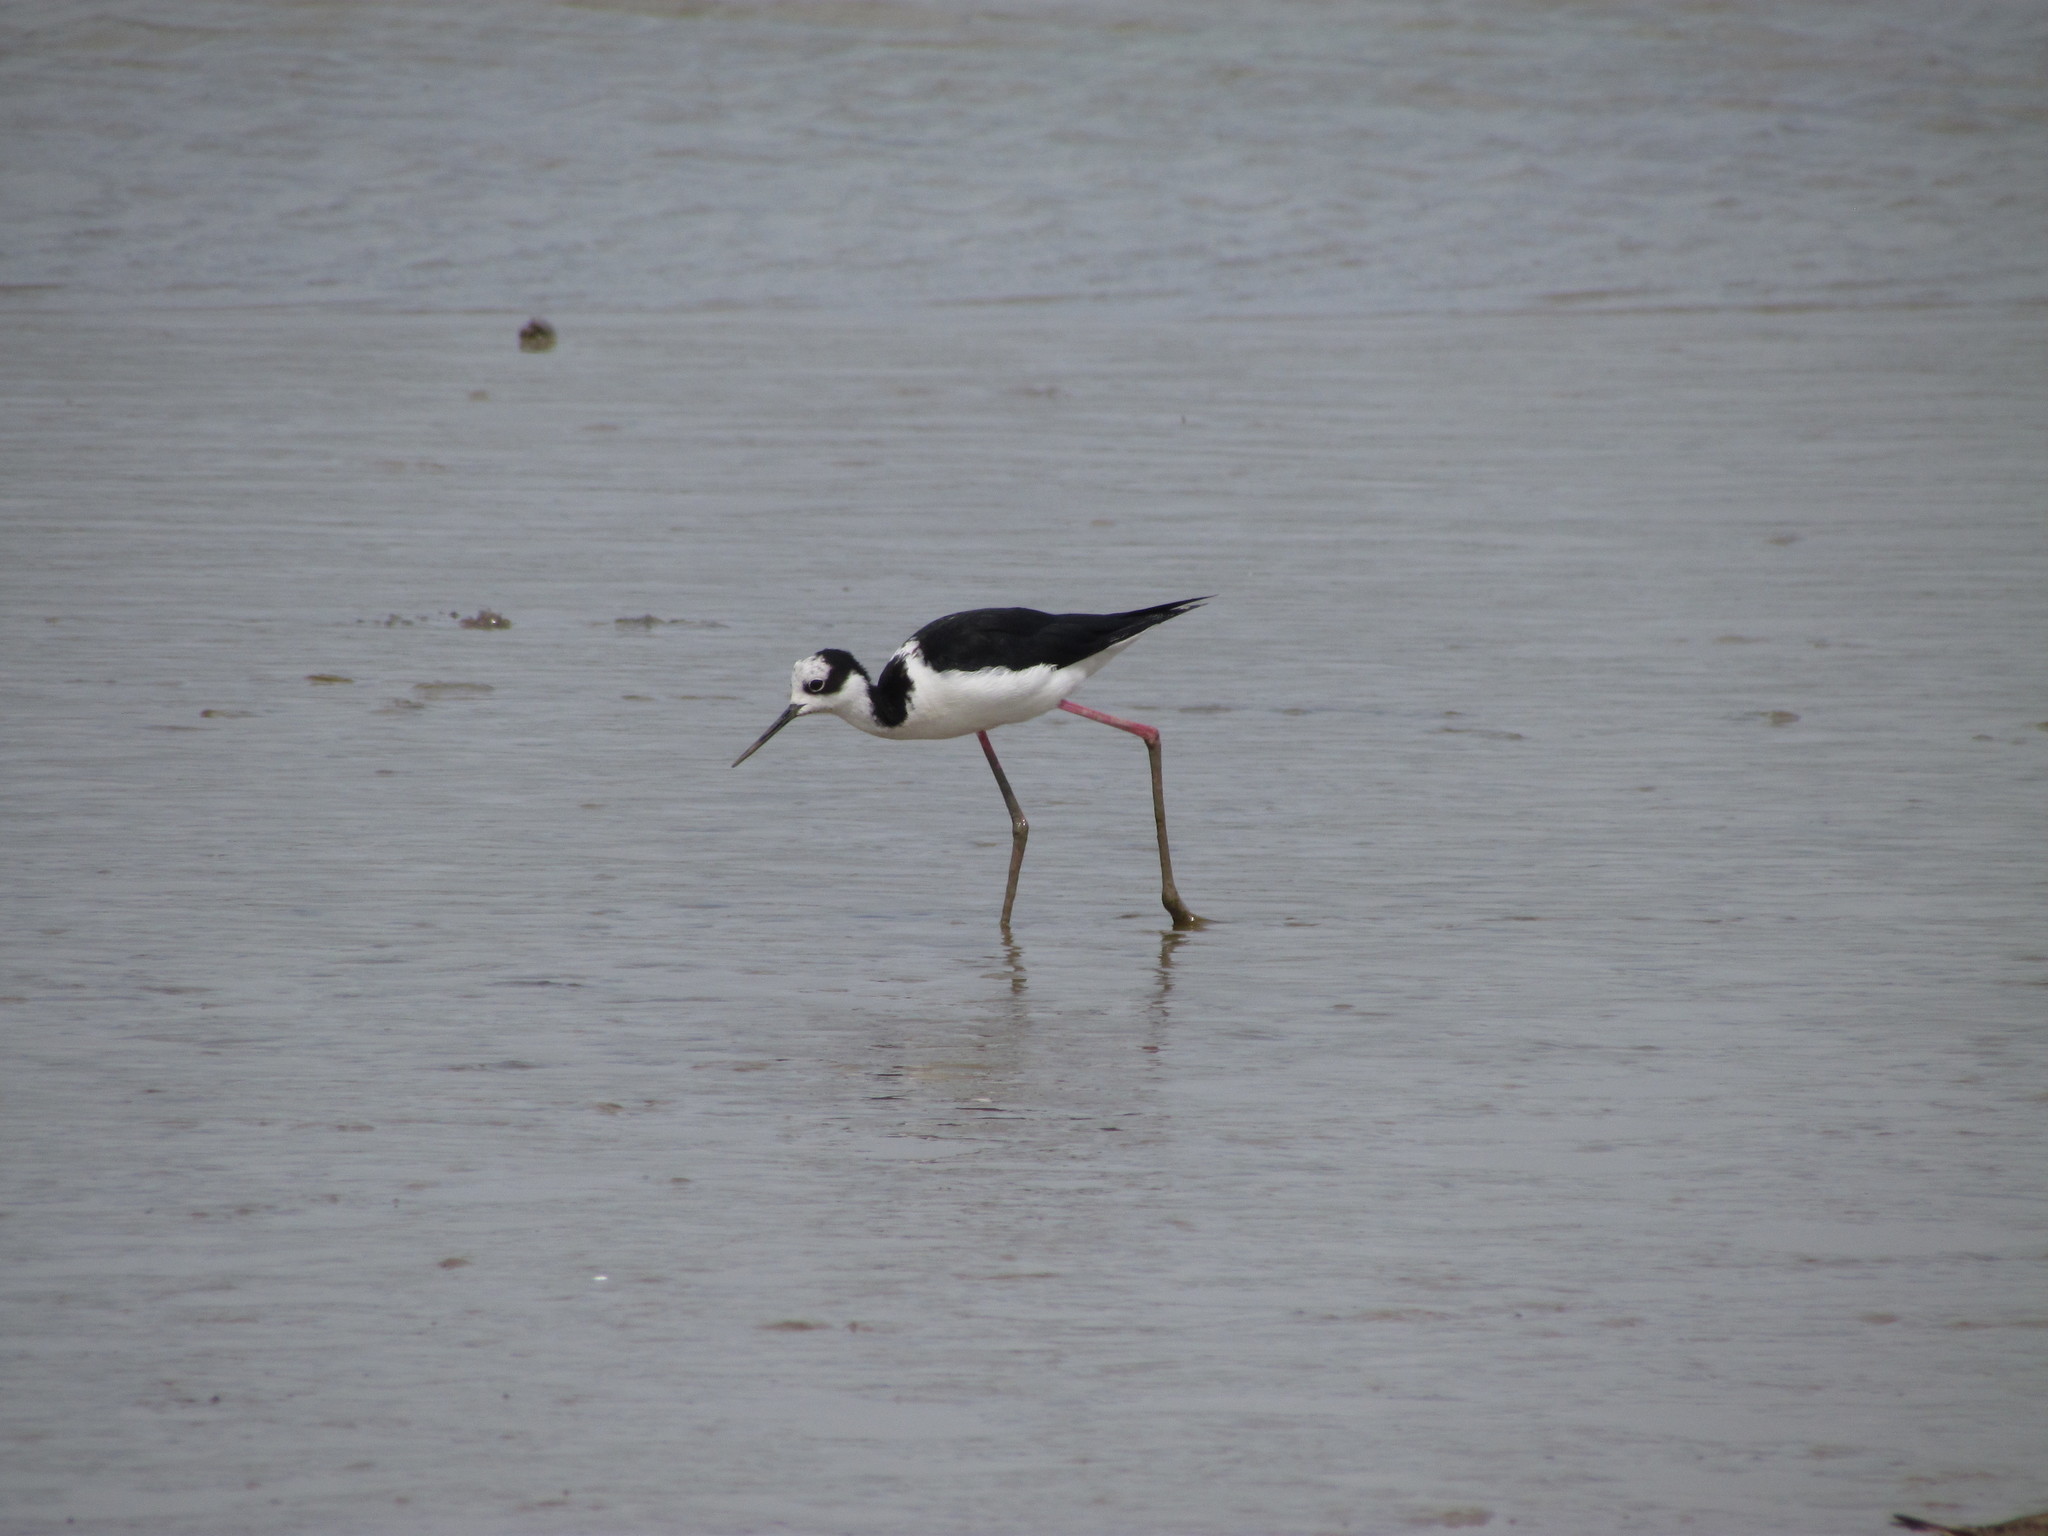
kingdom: Animalia
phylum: Chordata
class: Aves
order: Charadriiformes
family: Recurvirostridae
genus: Himantopus
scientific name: Himantopus mexicanus
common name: Black-necked stilt
